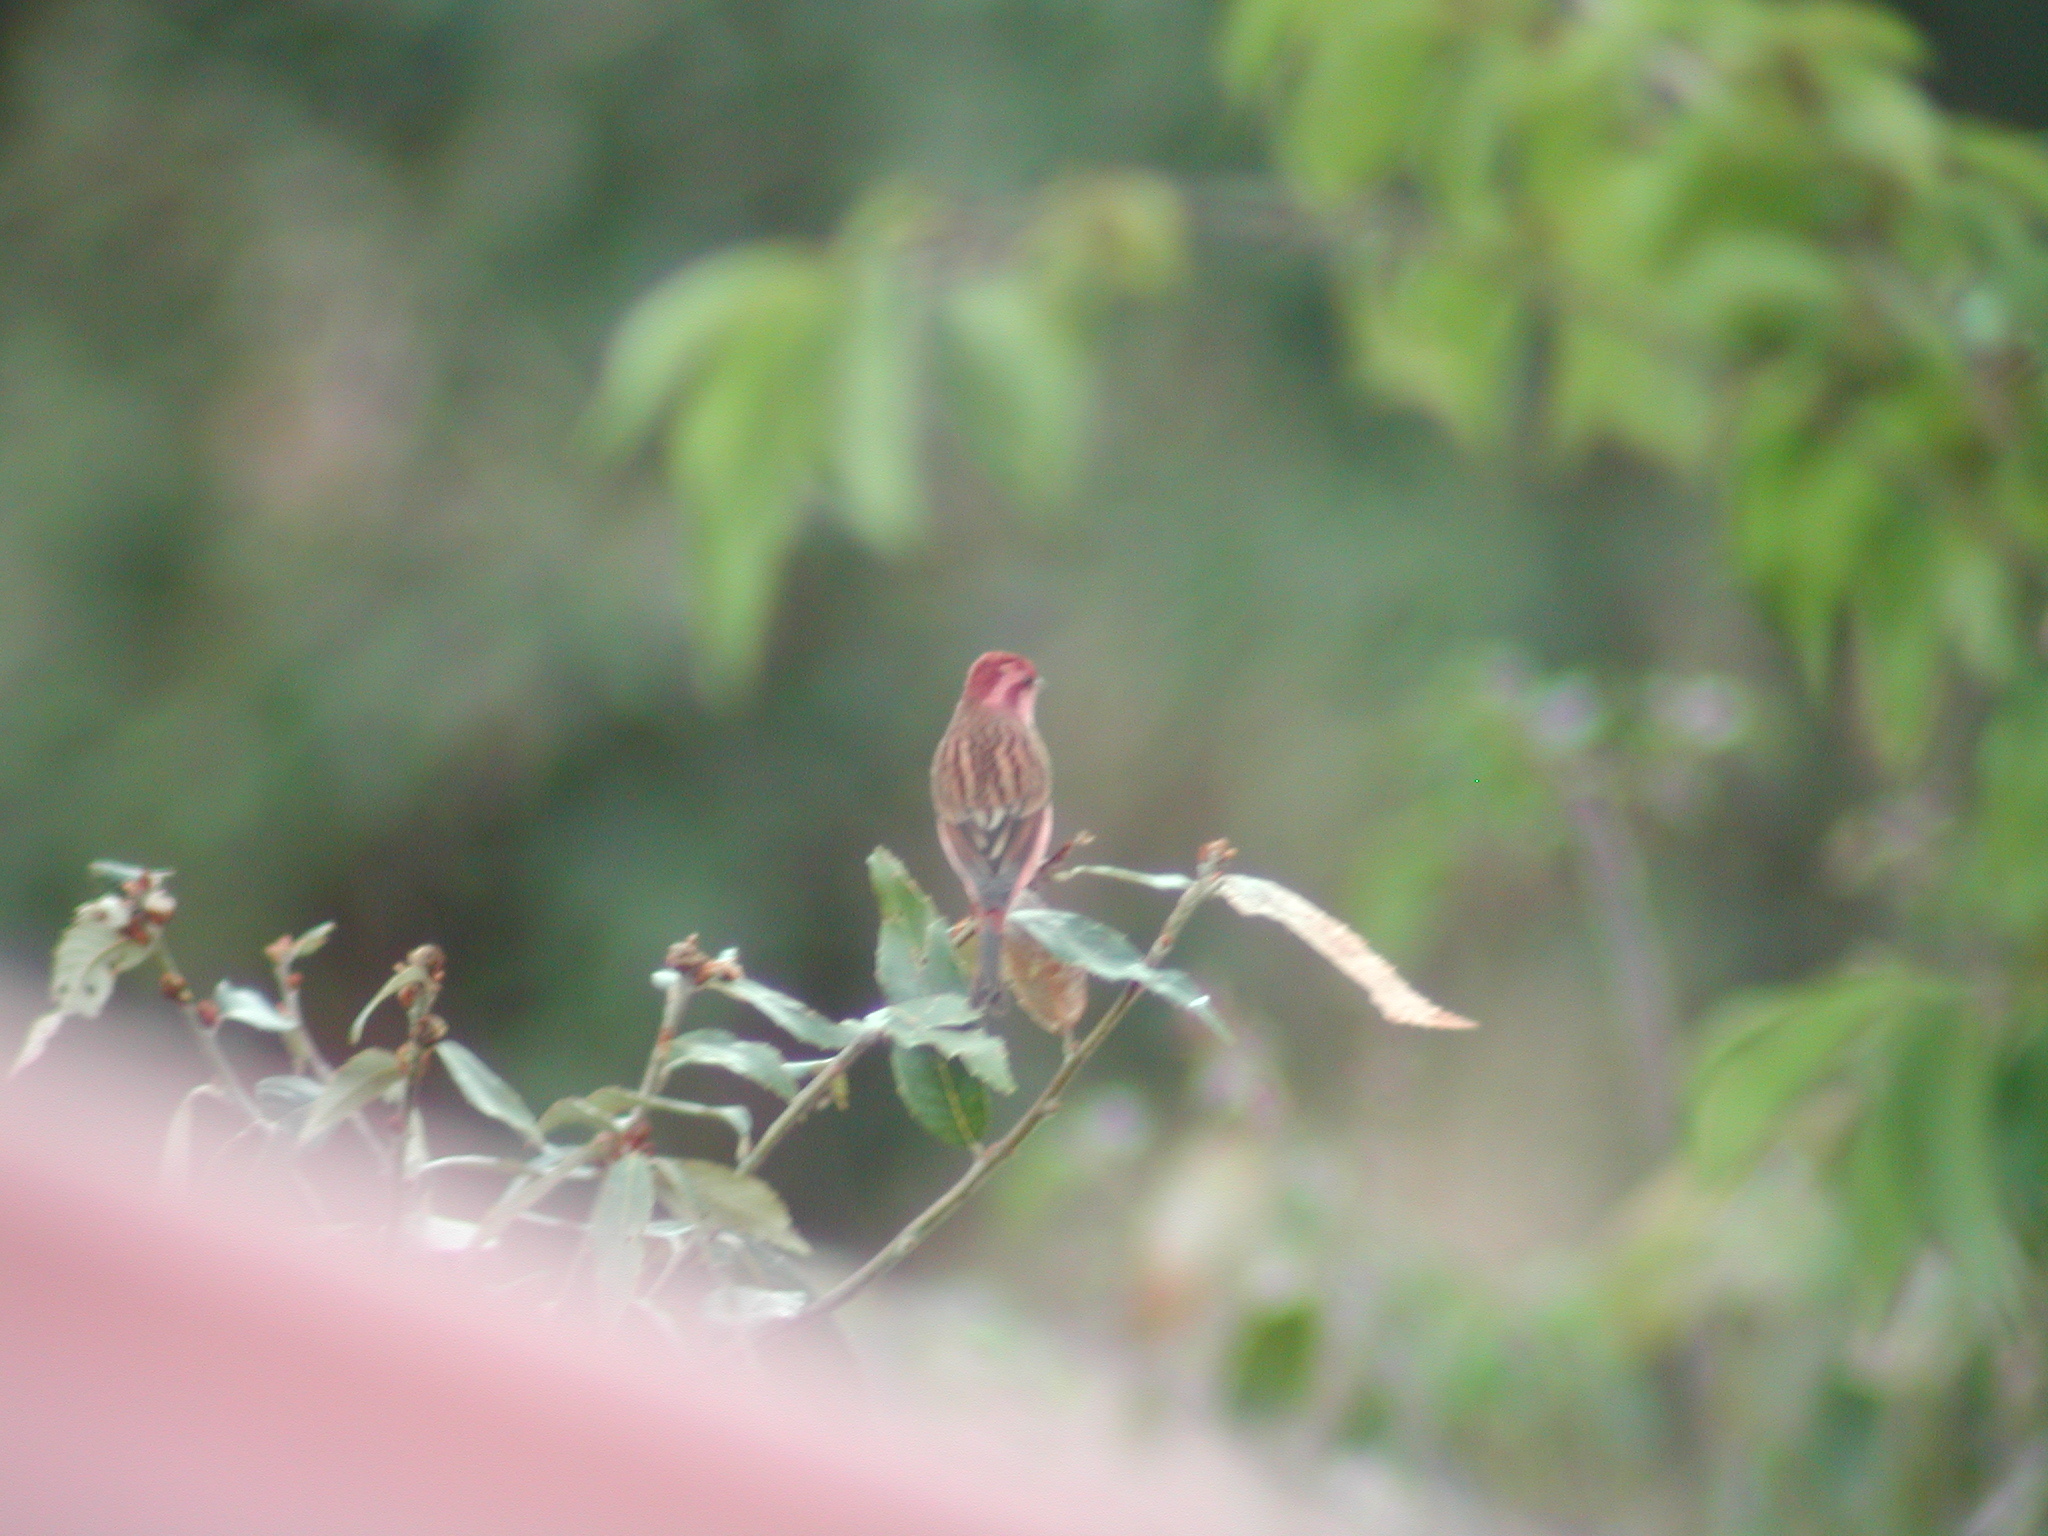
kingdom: Animalia
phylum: Chordata
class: Aves
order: Passeriformes
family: Fringillidae
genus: Carpodacus
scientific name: Carpodacus rodochroa
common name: Pink-browed rosefinch
